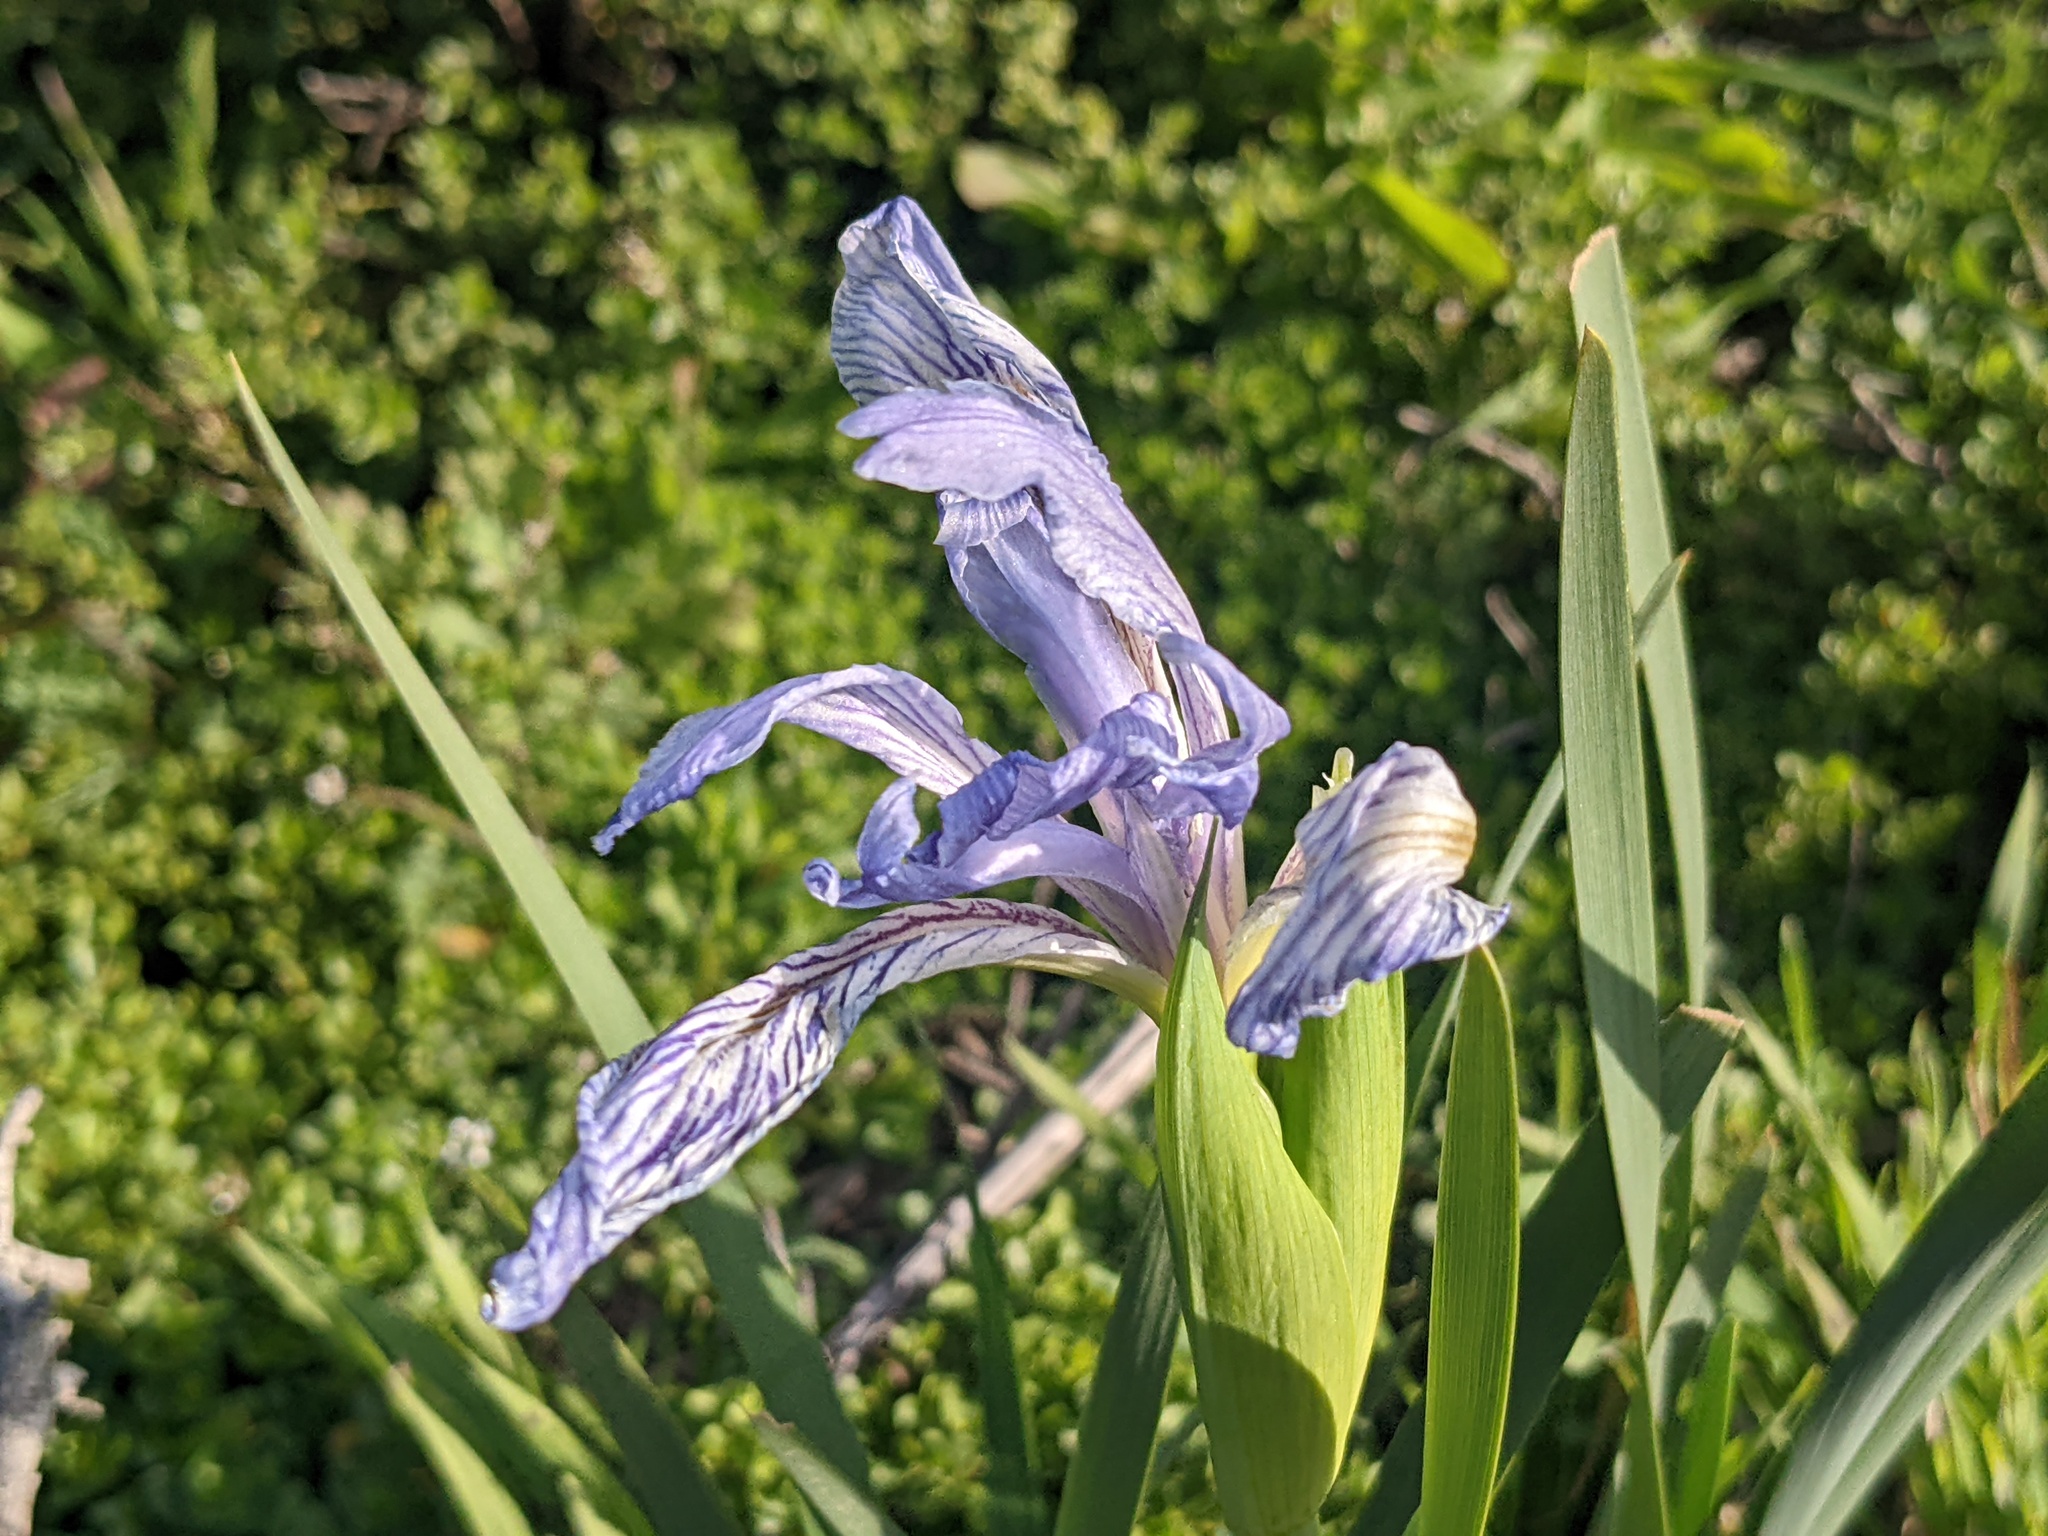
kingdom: Plantae
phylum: Tracheophyta
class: Liliopsida
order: Asparagales
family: Iridaceae
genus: Iris
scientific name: Iris longipetala
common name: Long-petal iris
